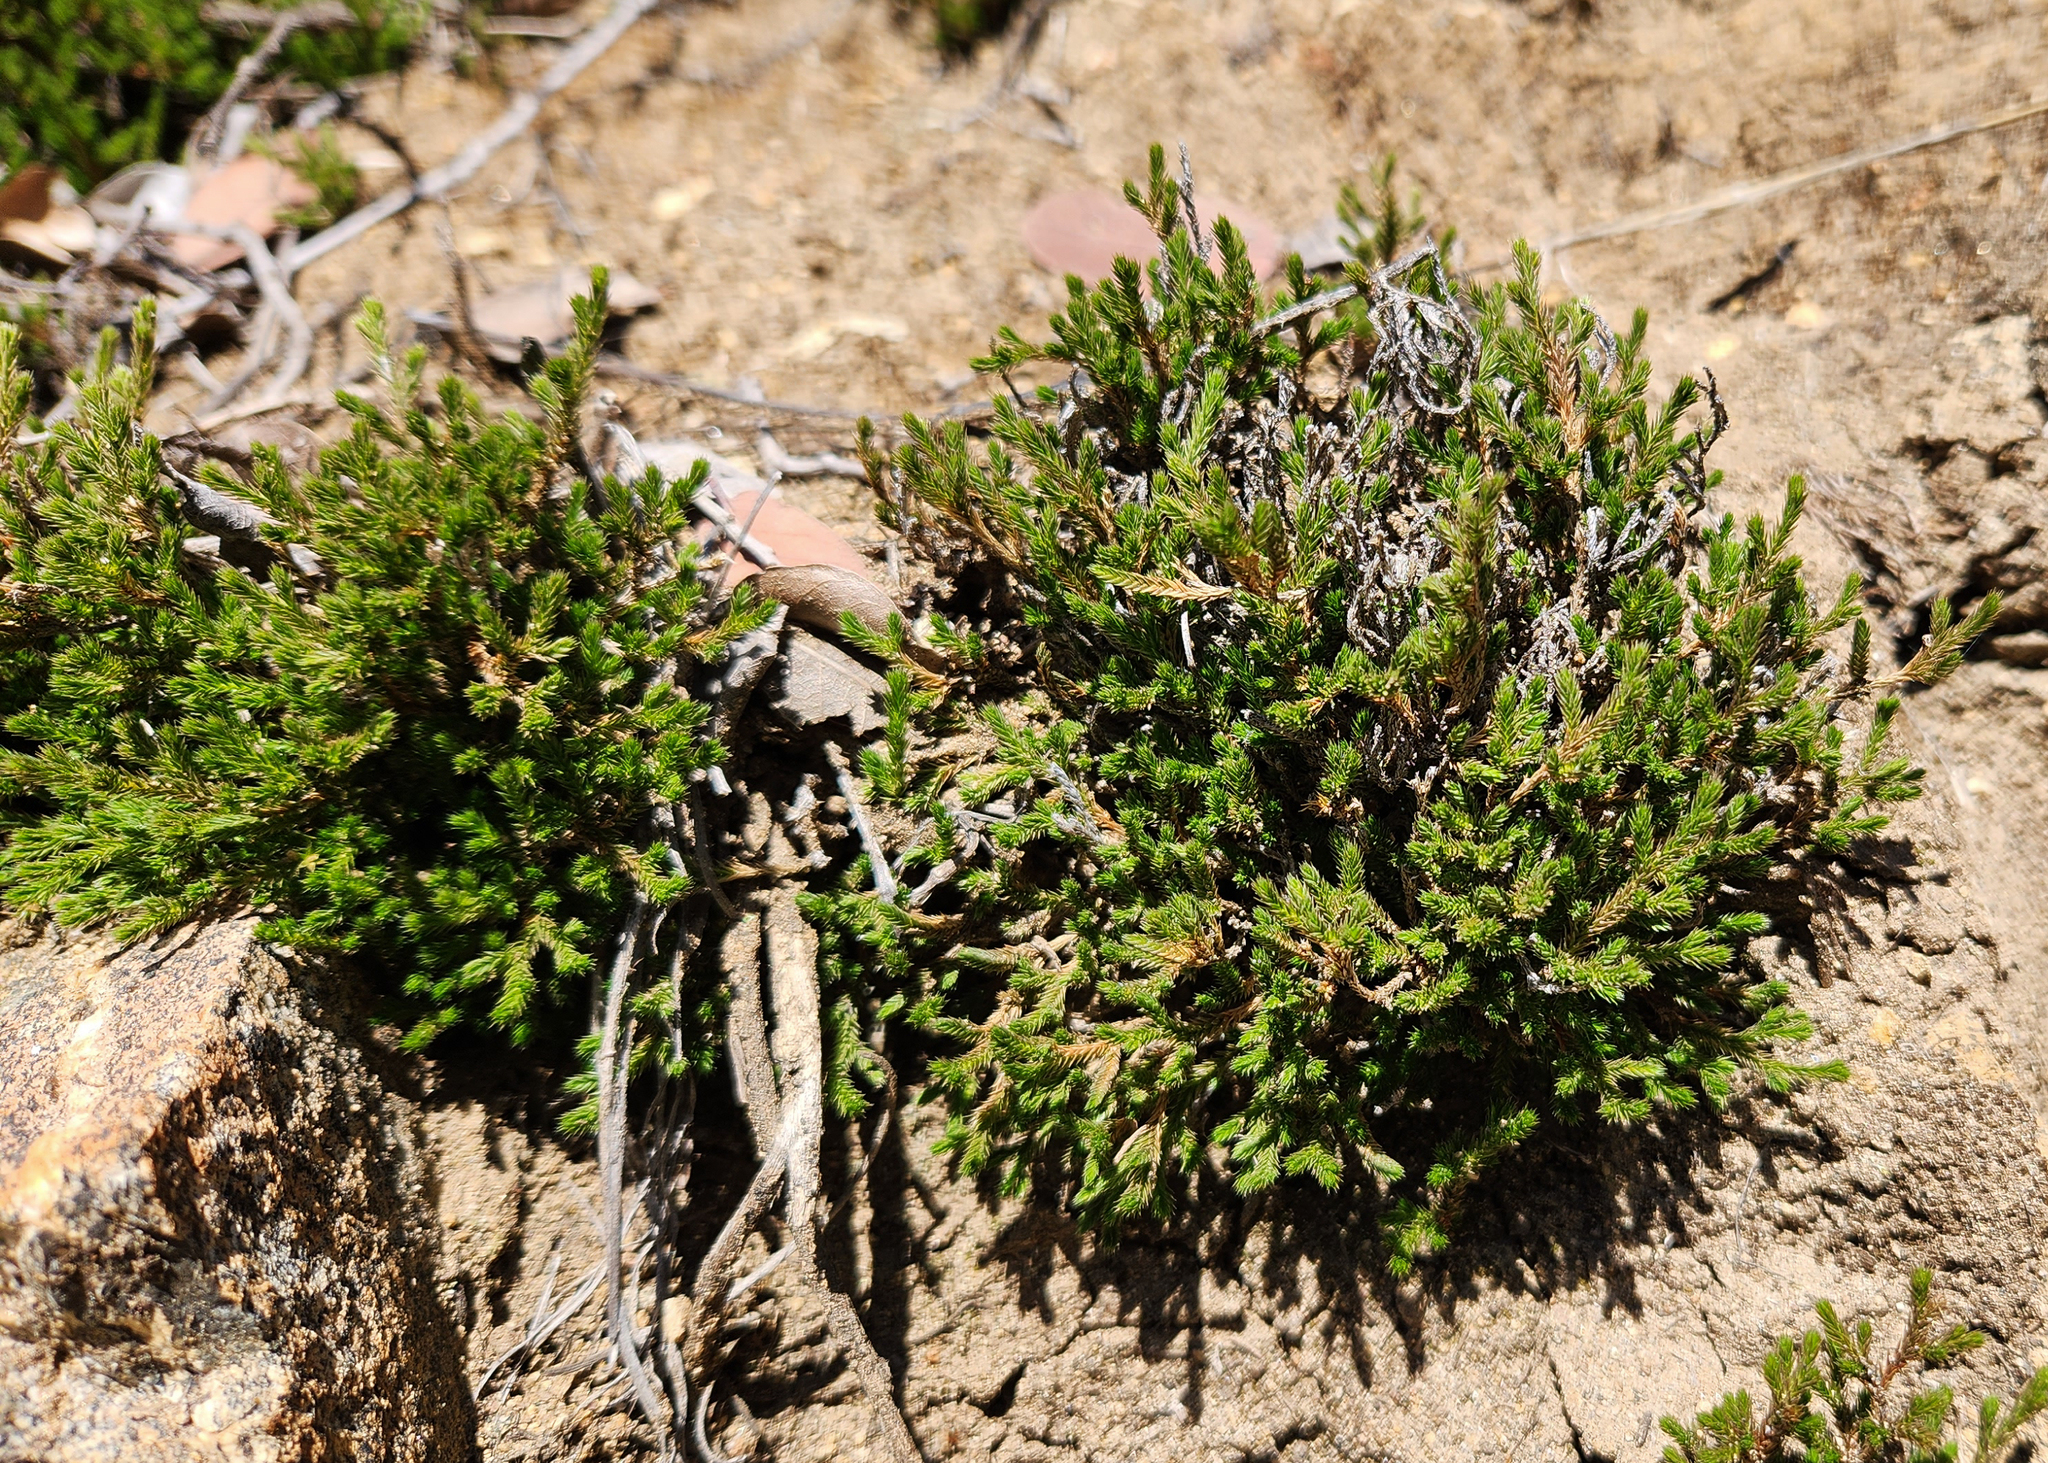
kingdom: Plantae
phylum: Tracheophyta
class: Lycopodiopsida
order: Selaginellales
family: Selaginellaceae
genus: Selaginella
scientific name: Selaginella bigelovii
